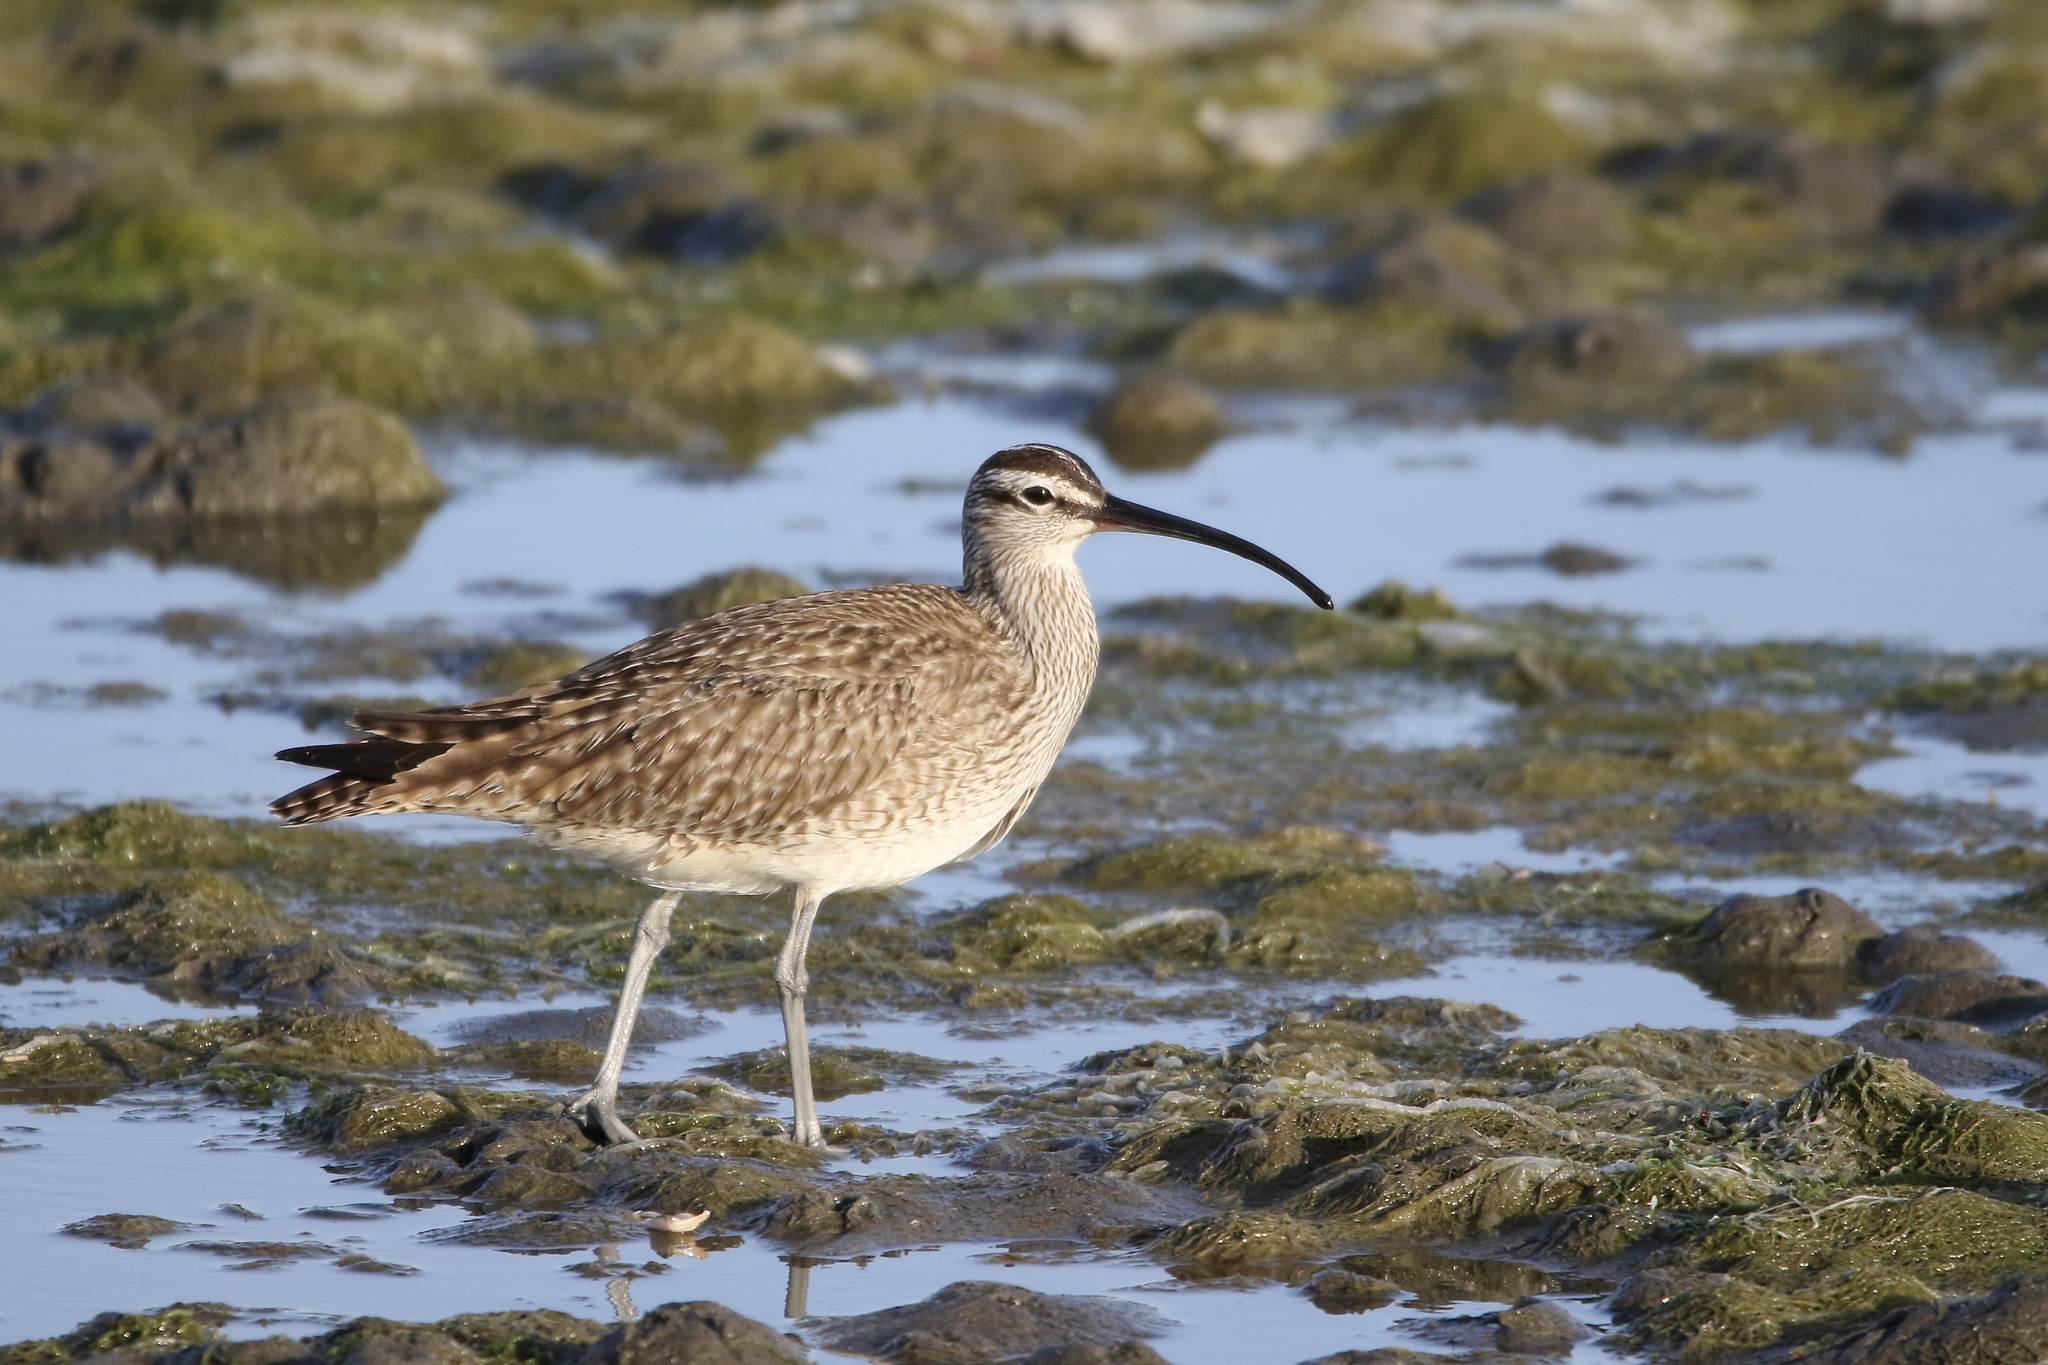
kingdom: Animalia
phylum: Chordata
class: Aves
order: Charadriiformes
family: Scolopacidae
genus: Numenius
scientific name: Numenius phaeopus
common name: Whimbrel
